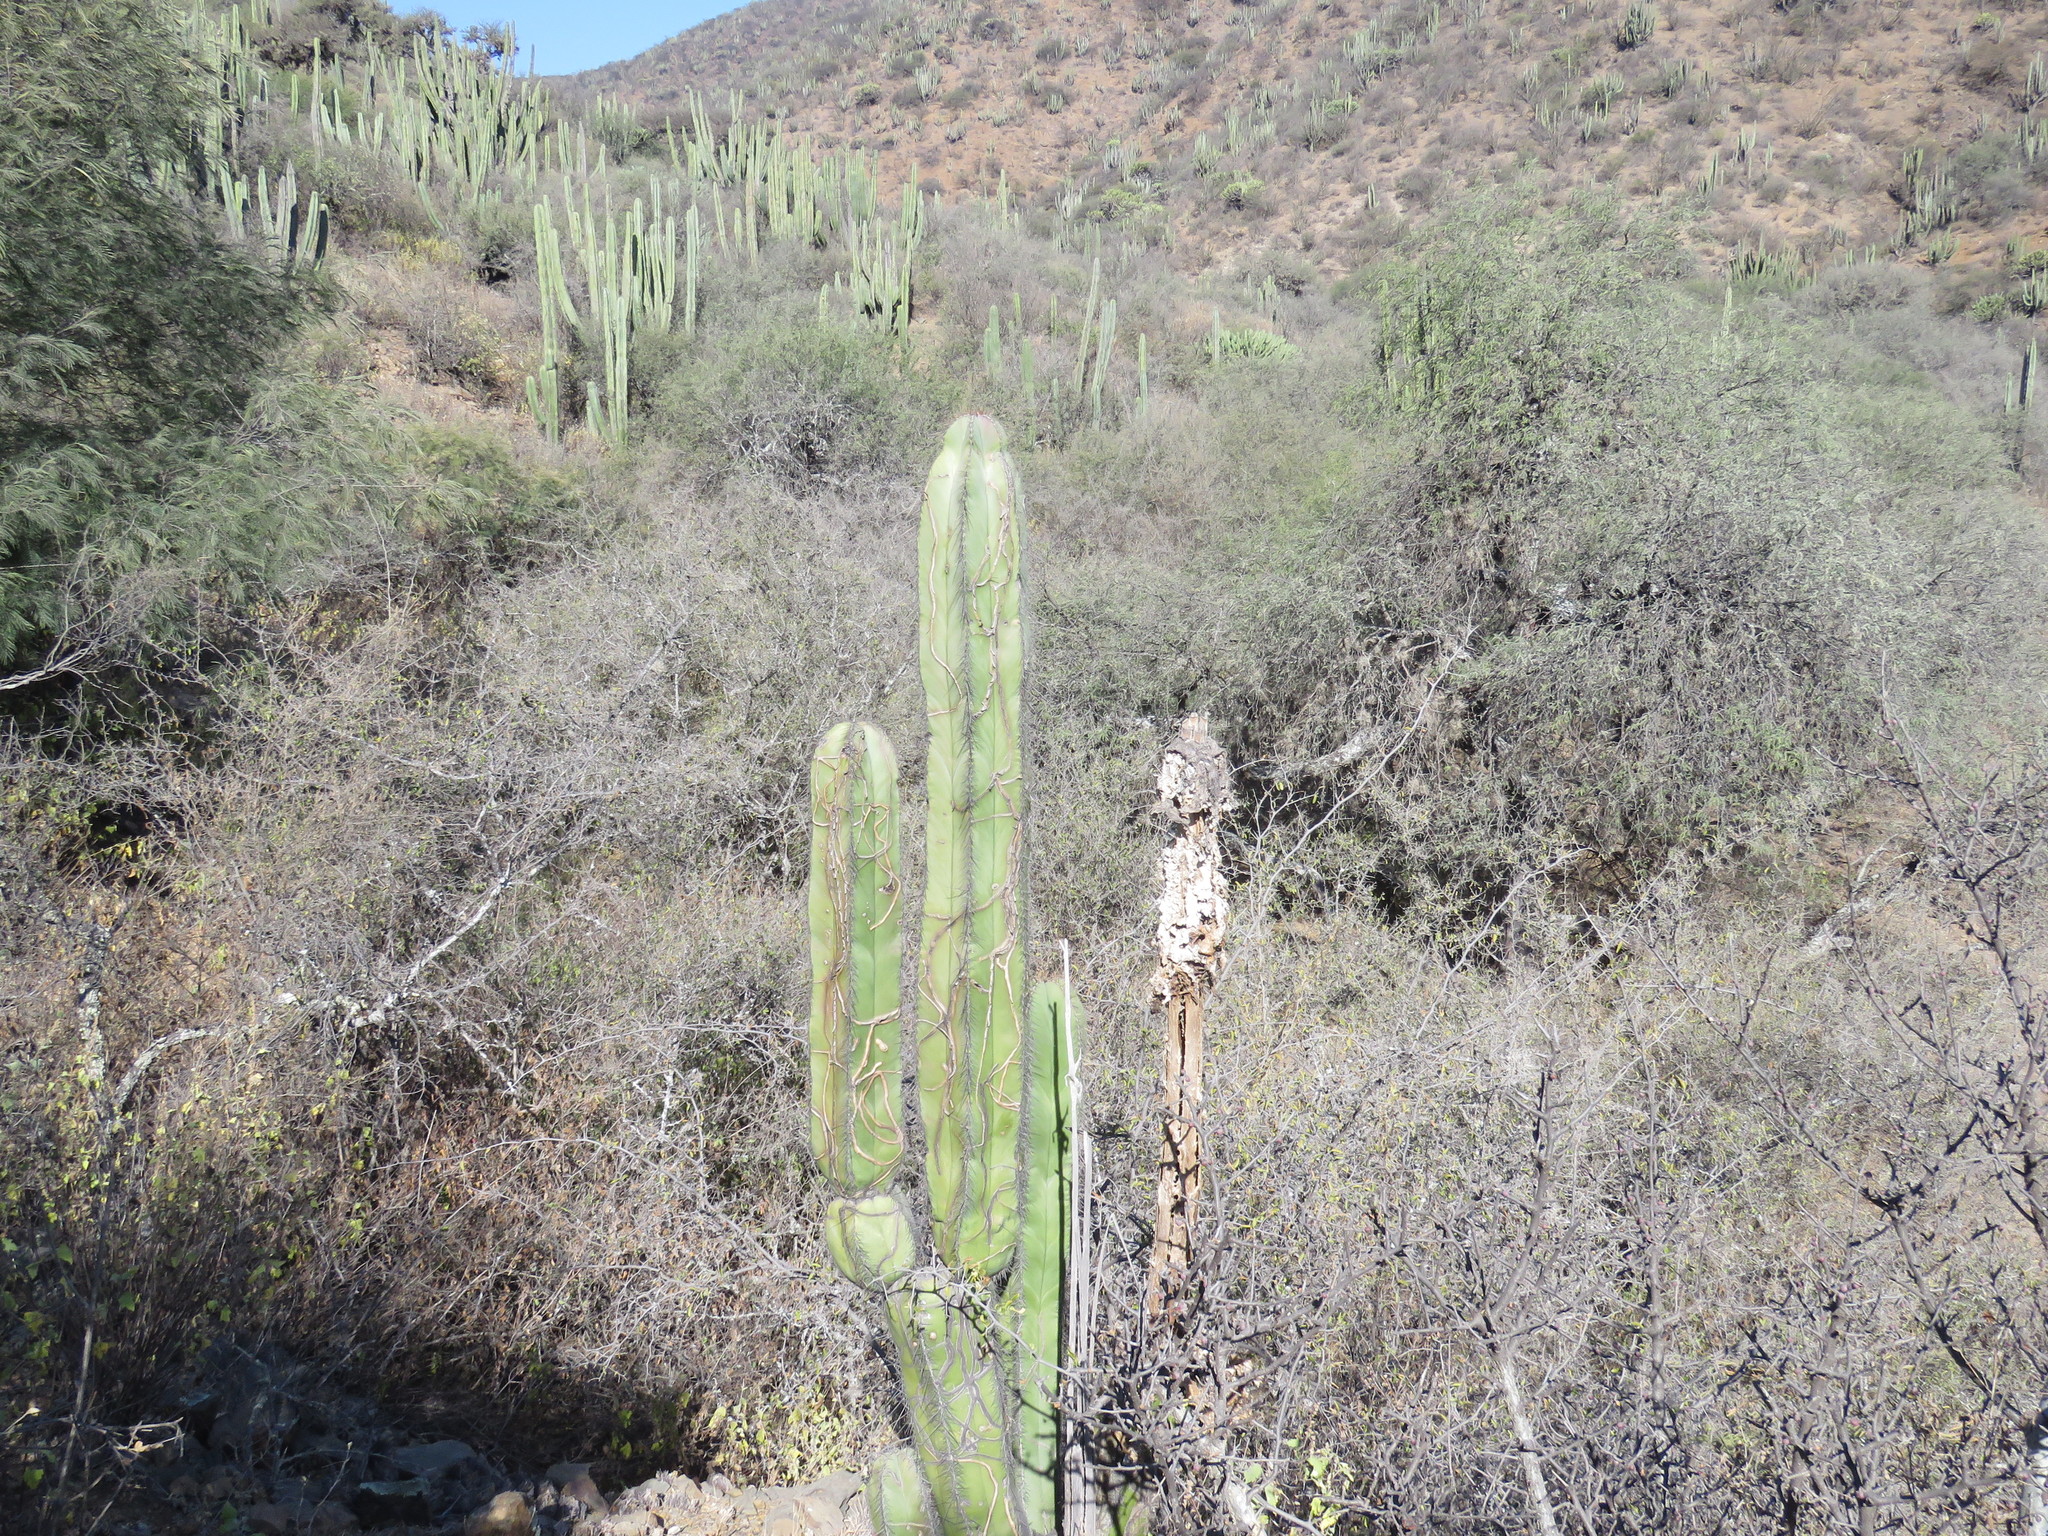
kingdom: Plantae
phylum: Tracheophyta
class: Magnoliopsida
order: Caryophyllales
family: Cactaceae
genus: Stenocereus
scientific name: Stenocereus dumortieri
